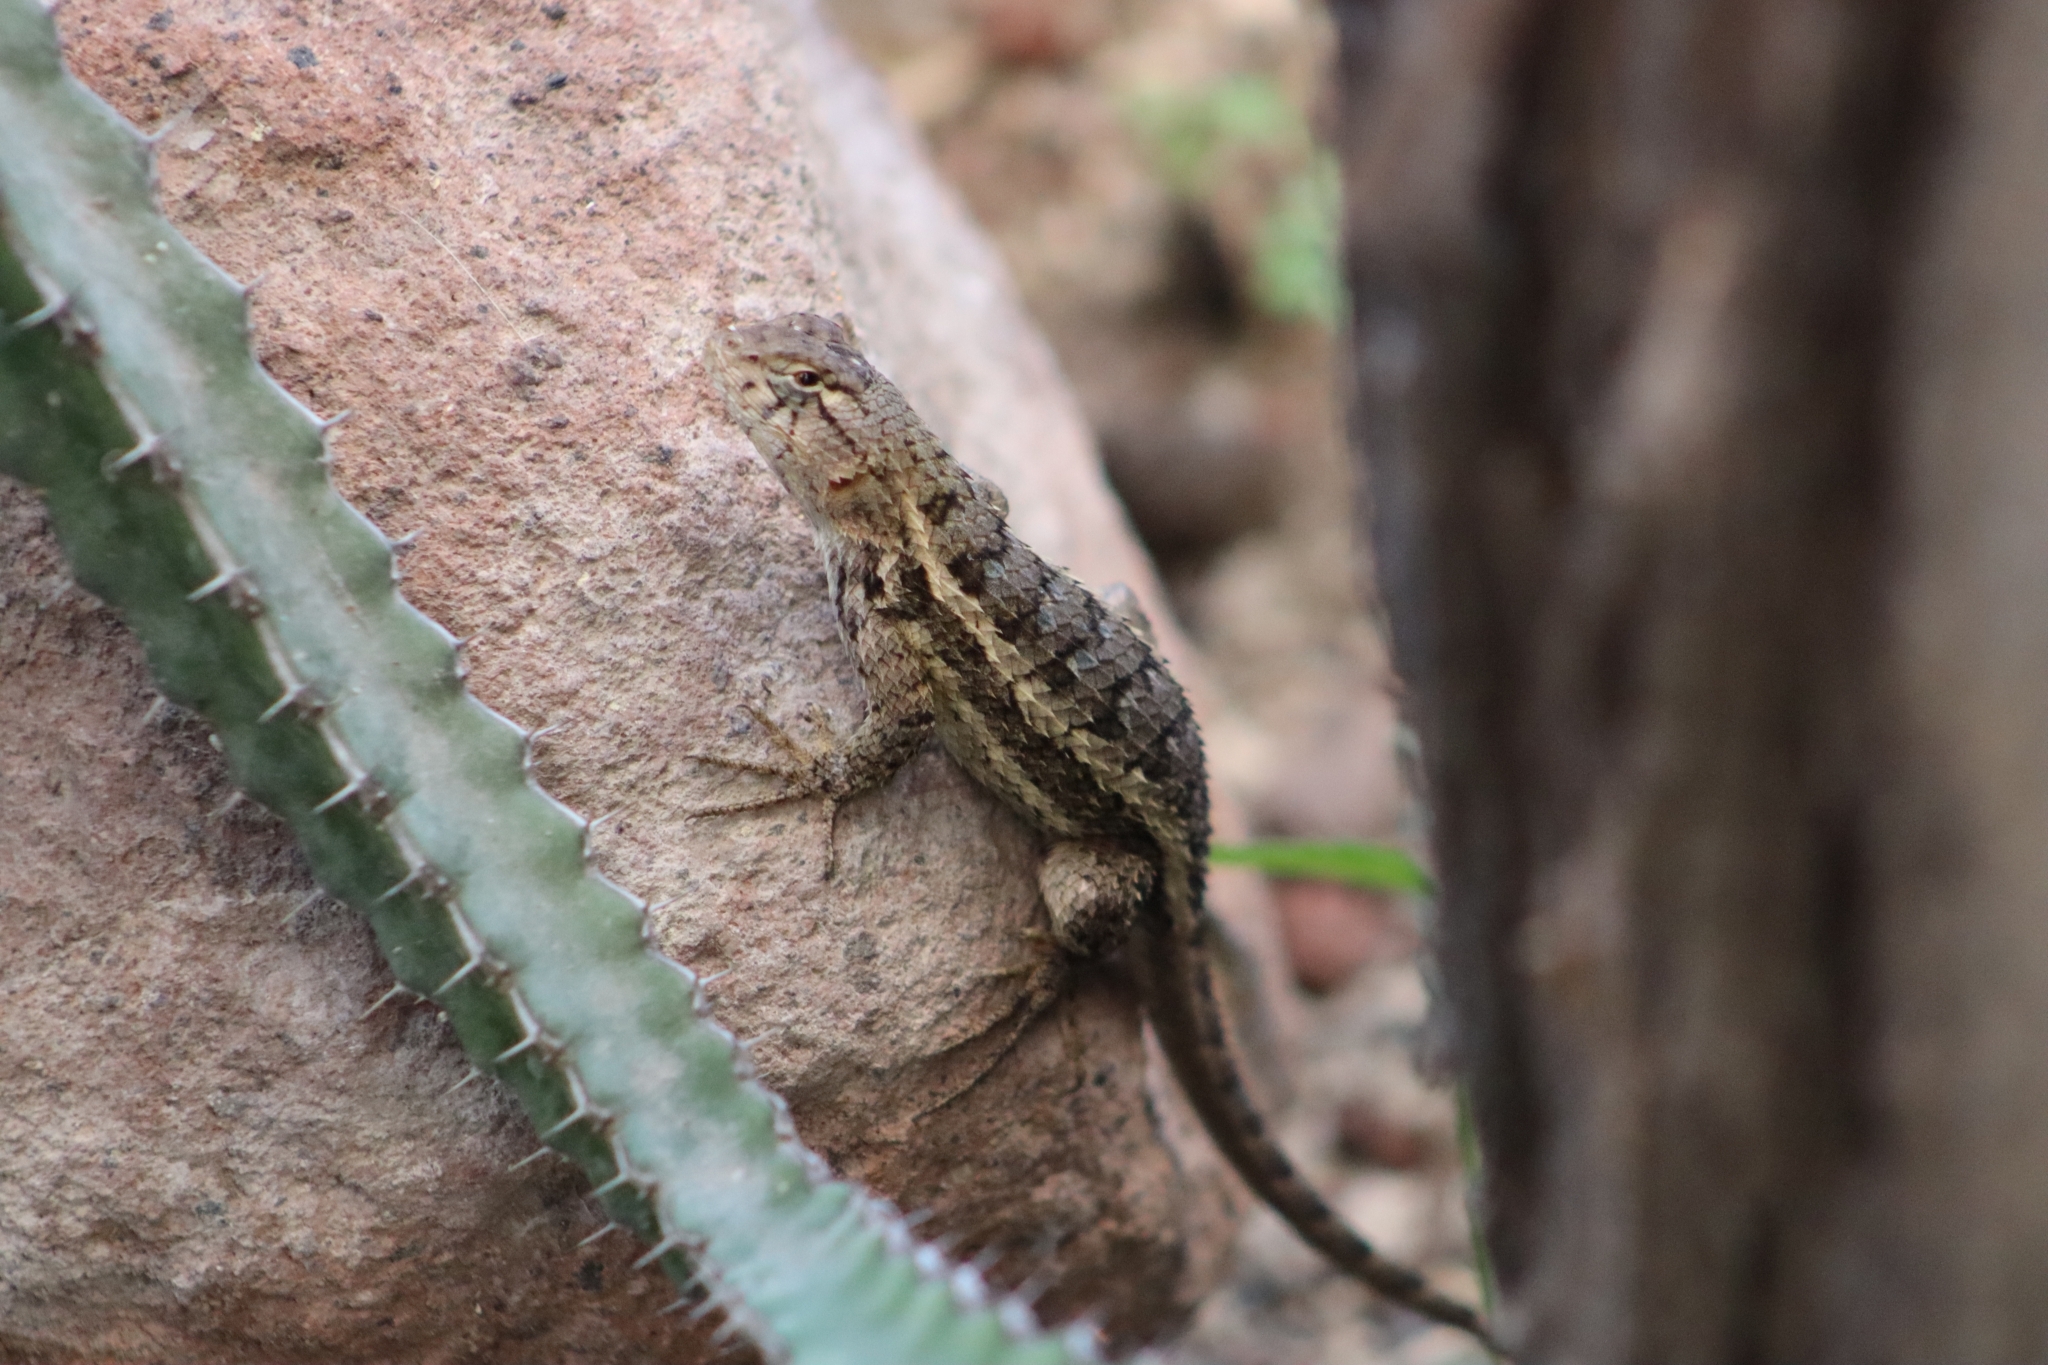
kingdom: Animalia
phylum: Chordata
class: Squamata
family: Phrynosomatidae
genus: Sceloporus
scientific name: Sceloporus horridus
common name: Few-pored rough lizard
